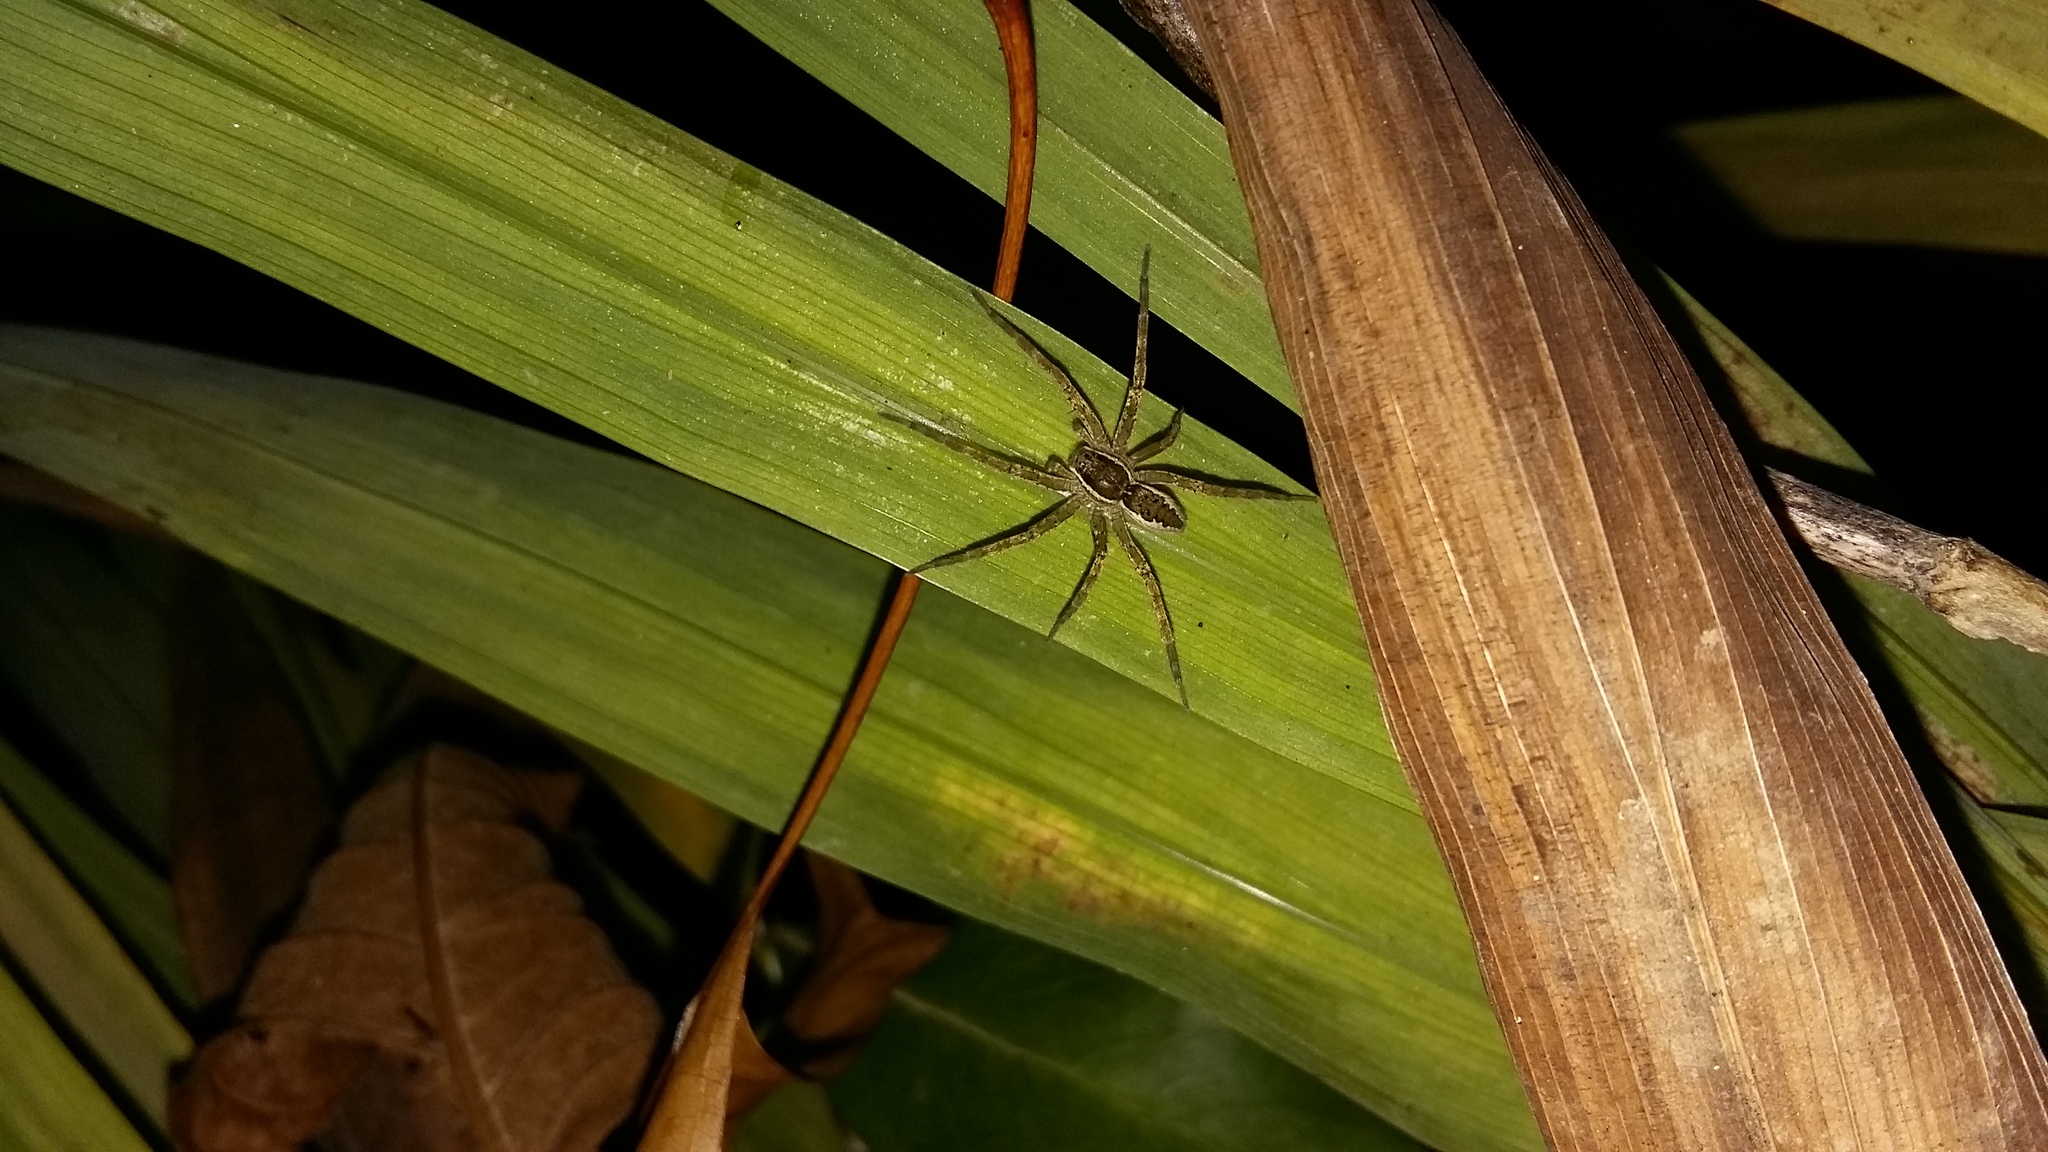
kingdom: Animalia
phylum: Arthropoda
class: Arachnida
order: Araneae
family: Pisauridae
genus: Dolomedes
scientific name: Dolomedes minor
